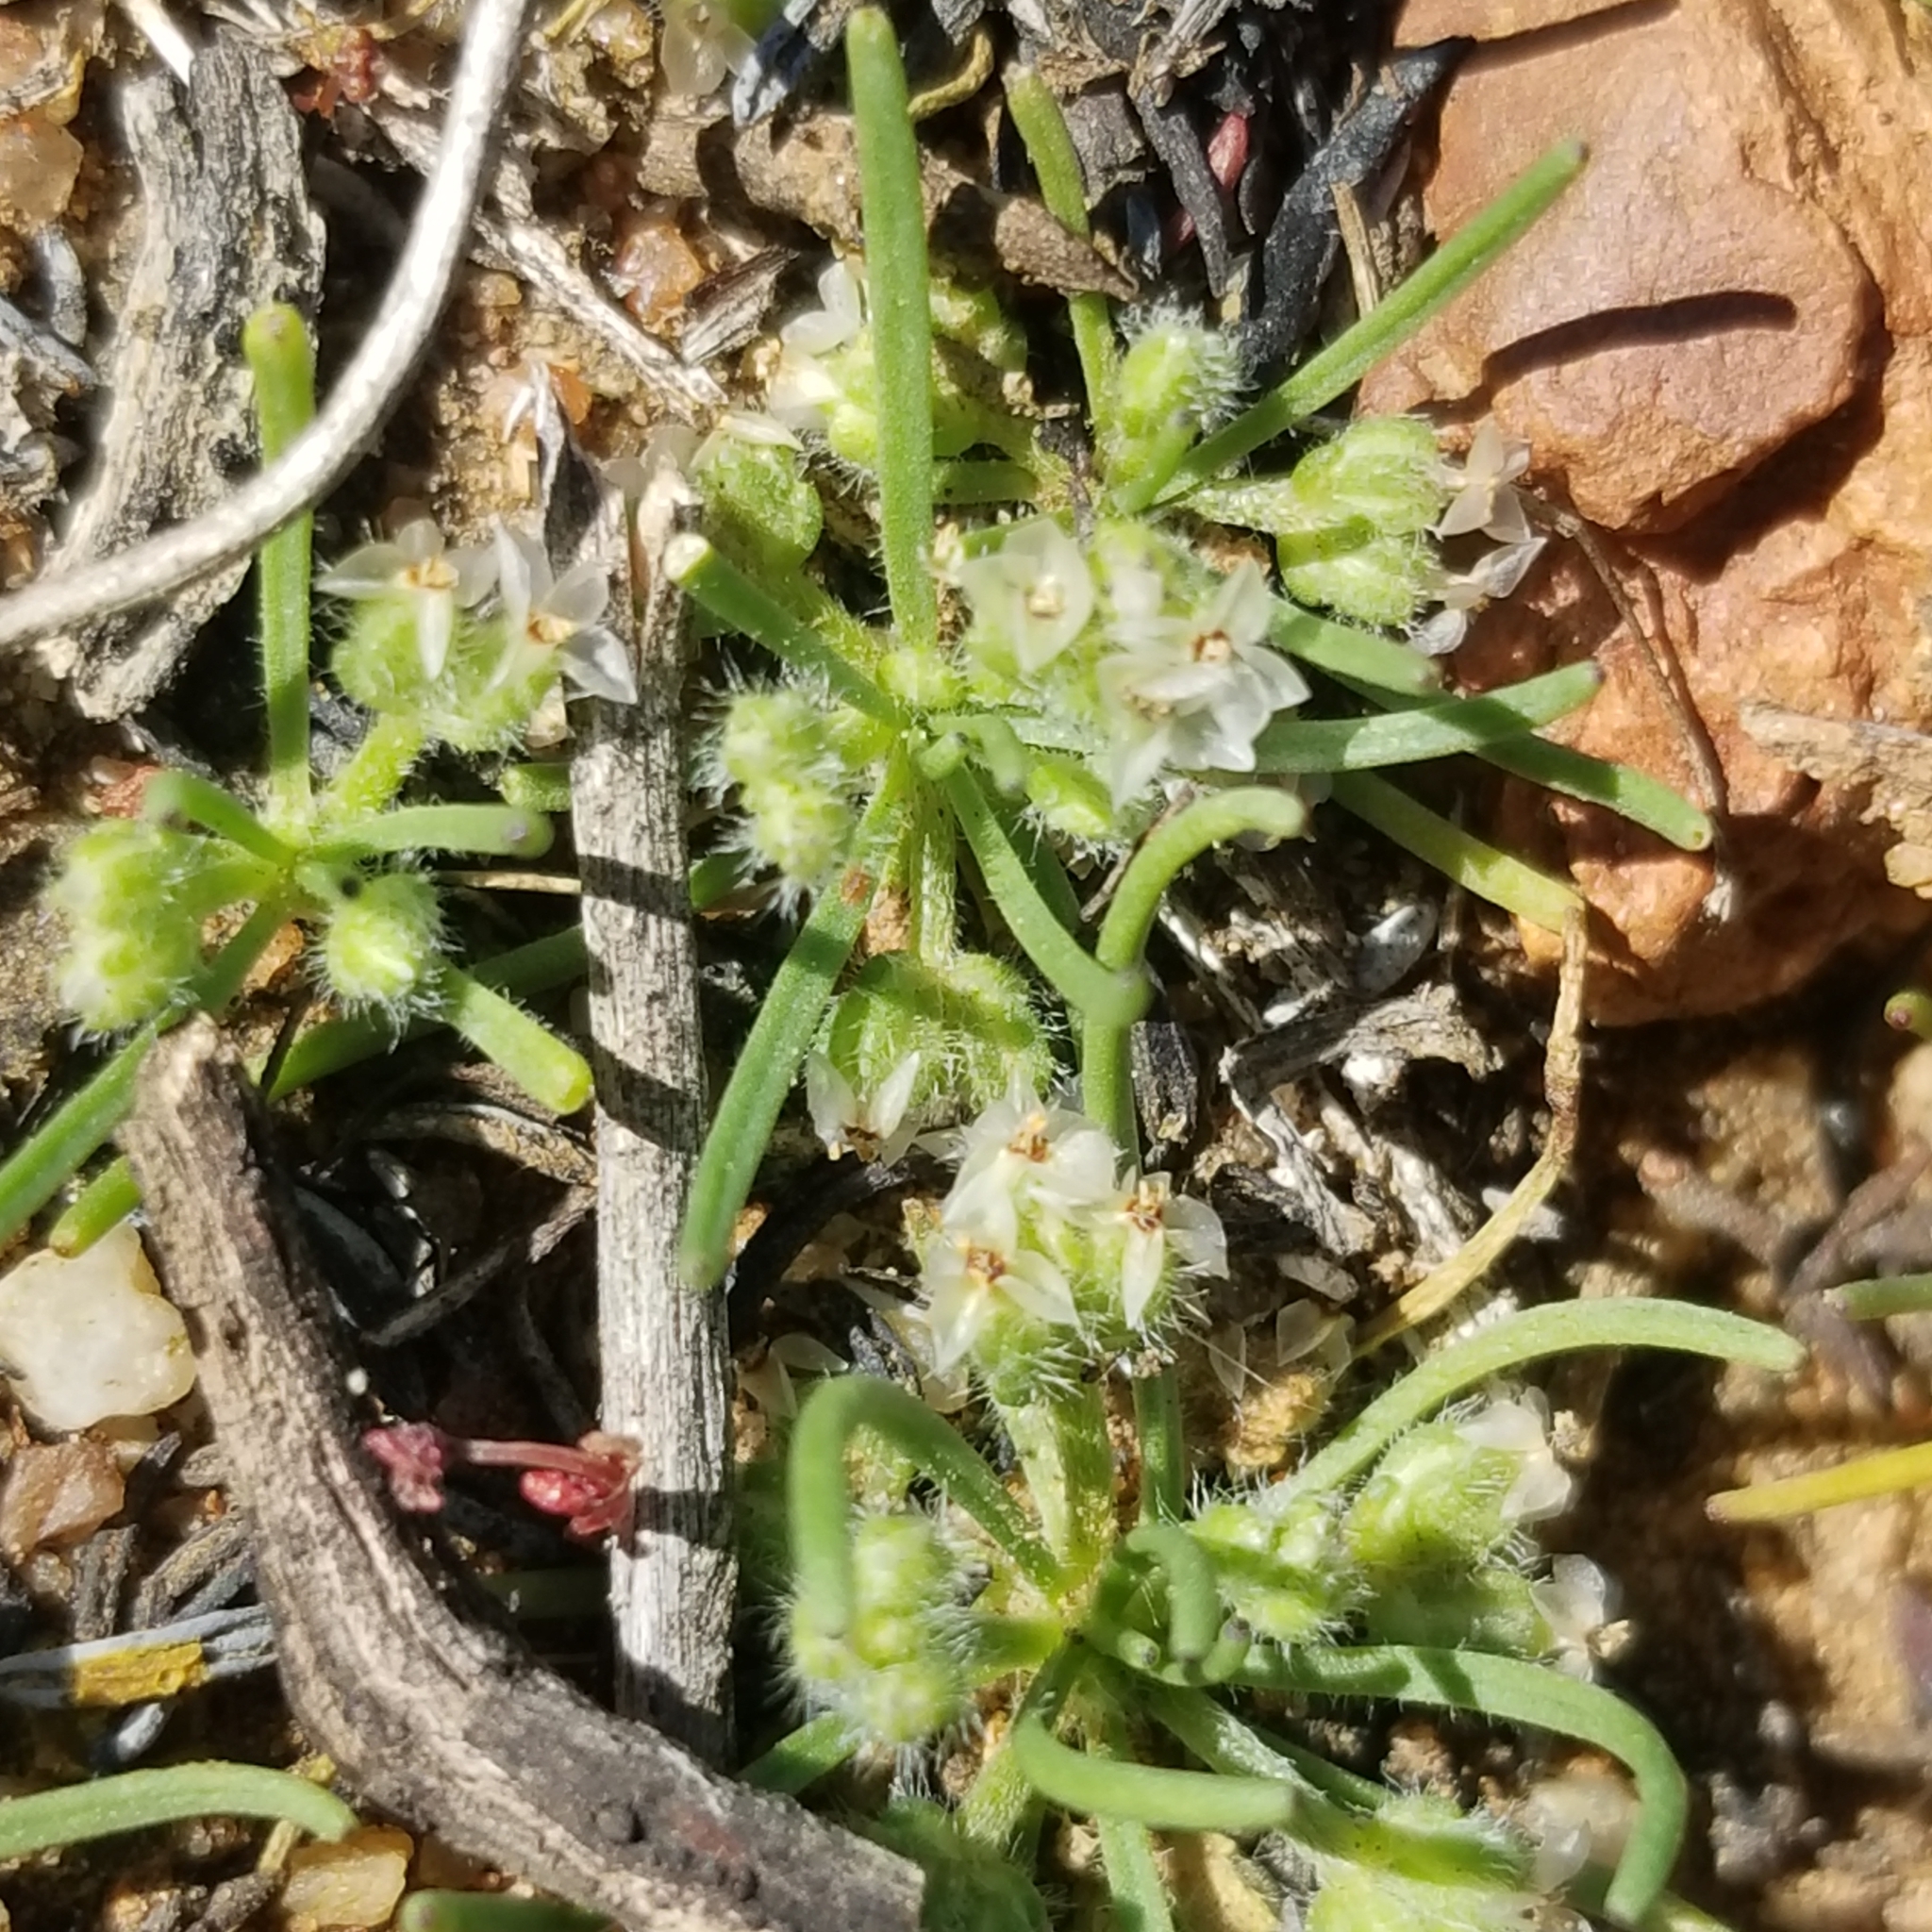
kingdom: Plantae
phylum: Tracheophyta
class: Magnoliopsida
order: Lamiales
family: Plantaginaceae
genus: Plantago
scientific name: Plantago erecta
